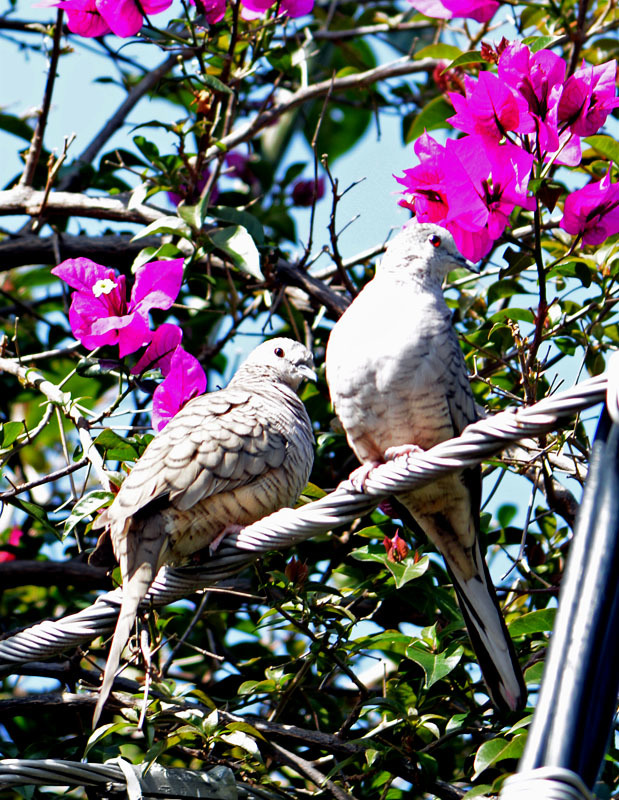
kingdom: Animalia
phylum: Chordata
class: Aves
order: Columbiformes
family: Columbidae
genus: Columbina
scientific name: Columbina inca
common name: Inca dove
